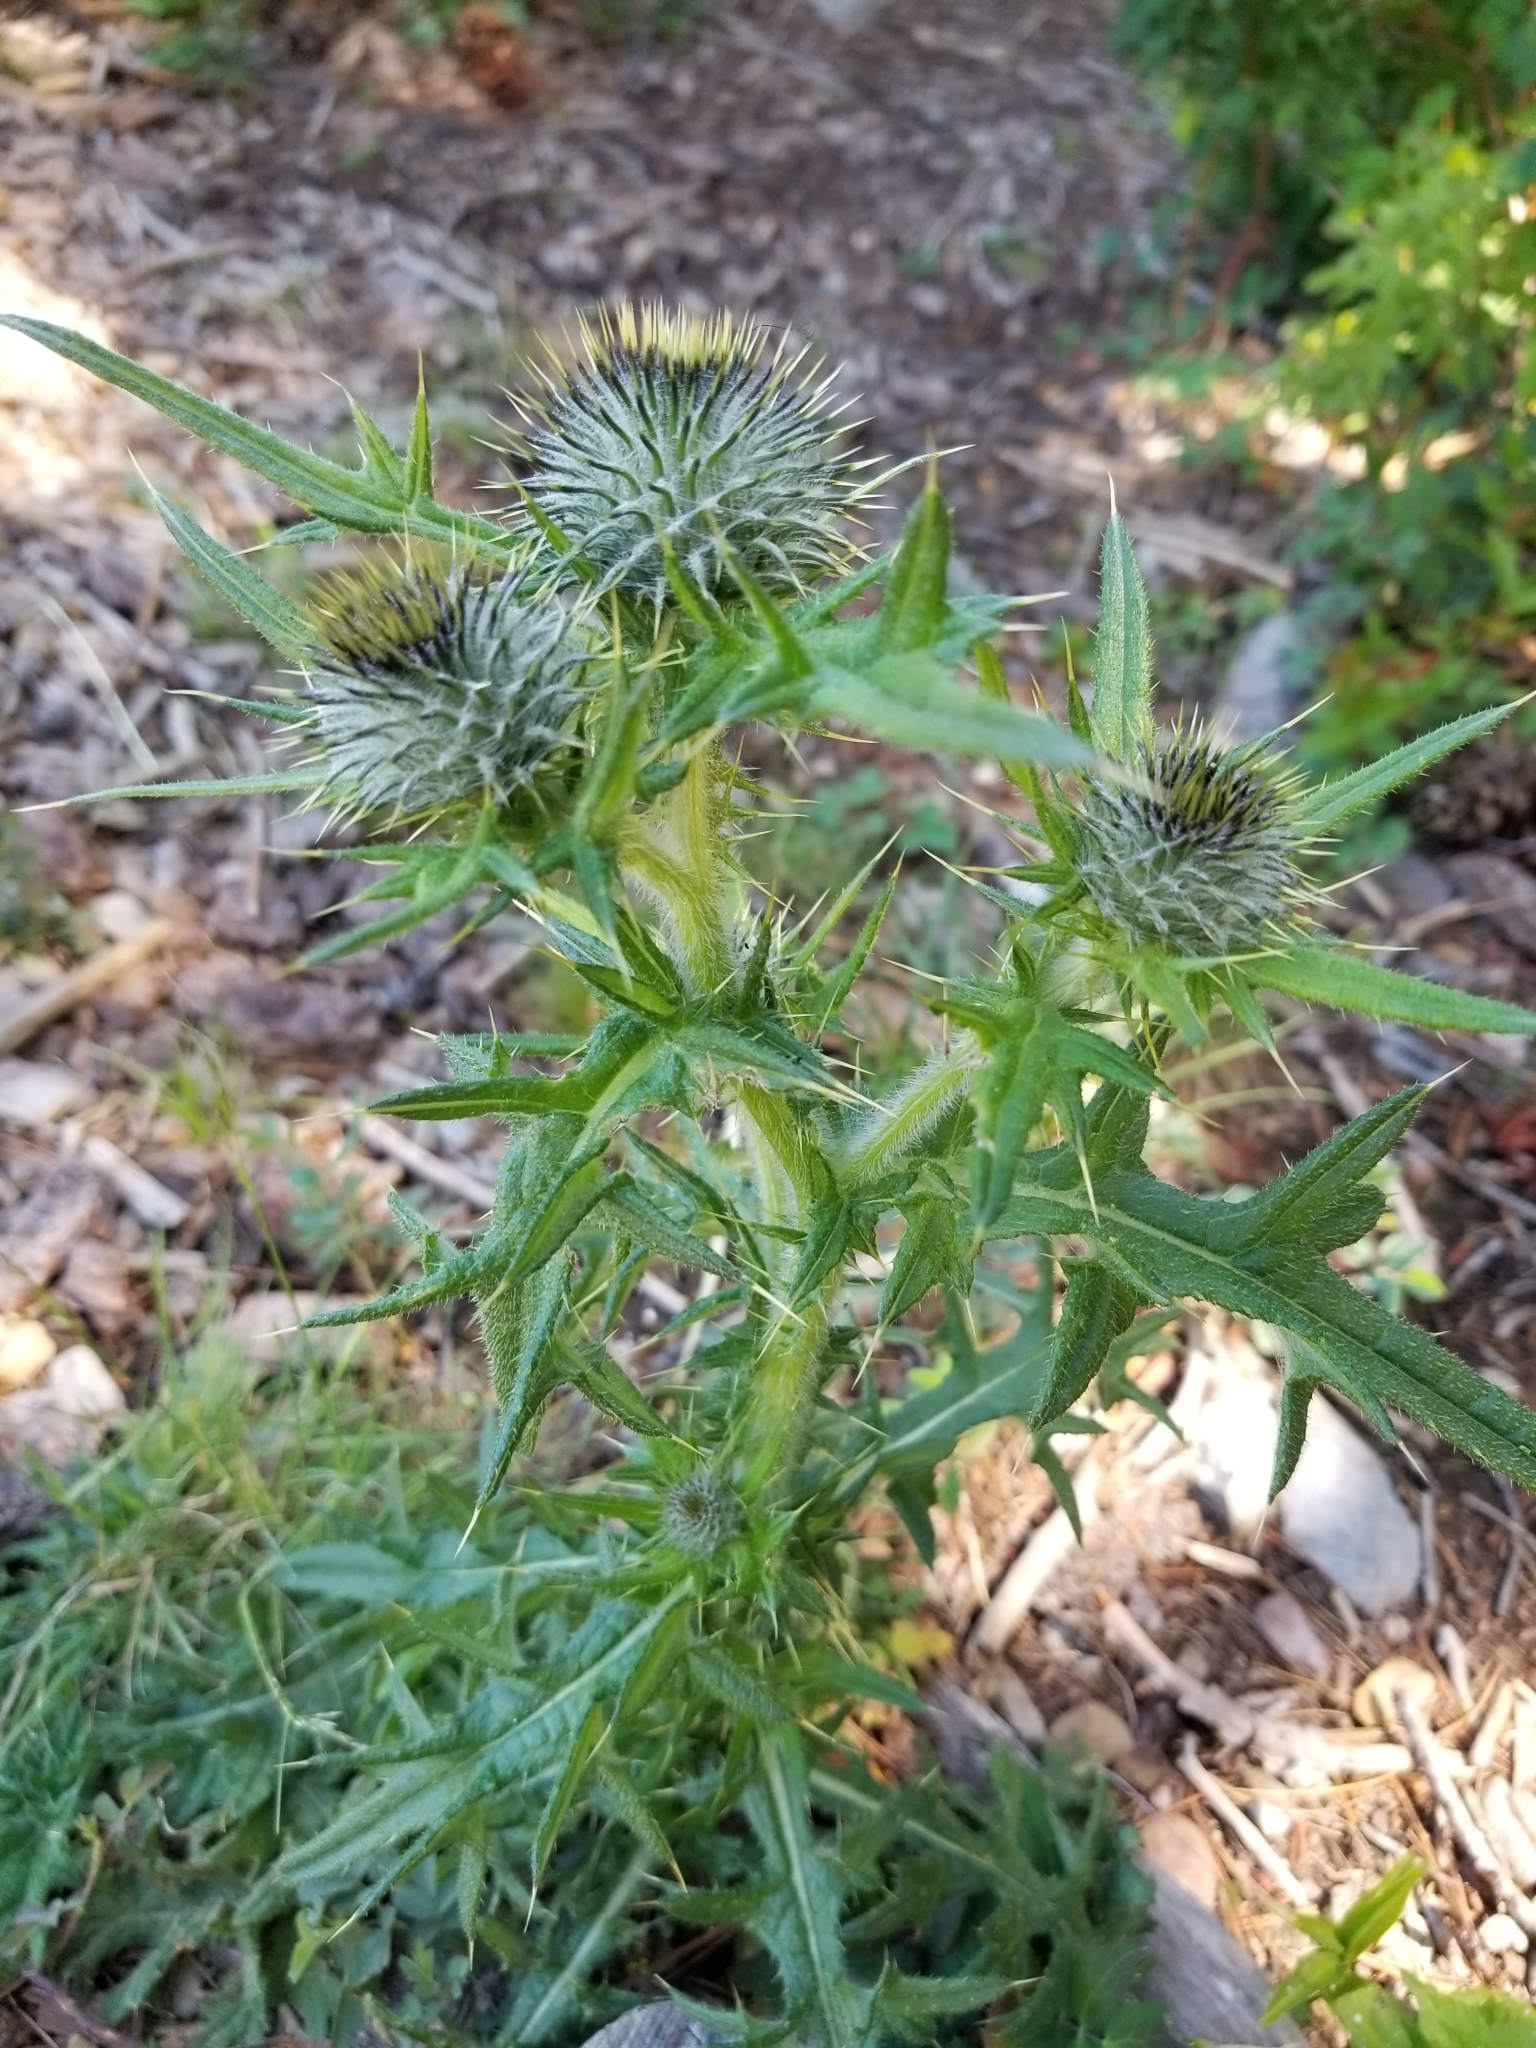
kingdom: Plantae
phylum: Tracheophyta
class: Magnoliopsida
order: Asterales
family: Asteraceae
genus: Cirsium
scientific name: Cirsium vulgare
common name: Bull thistle
